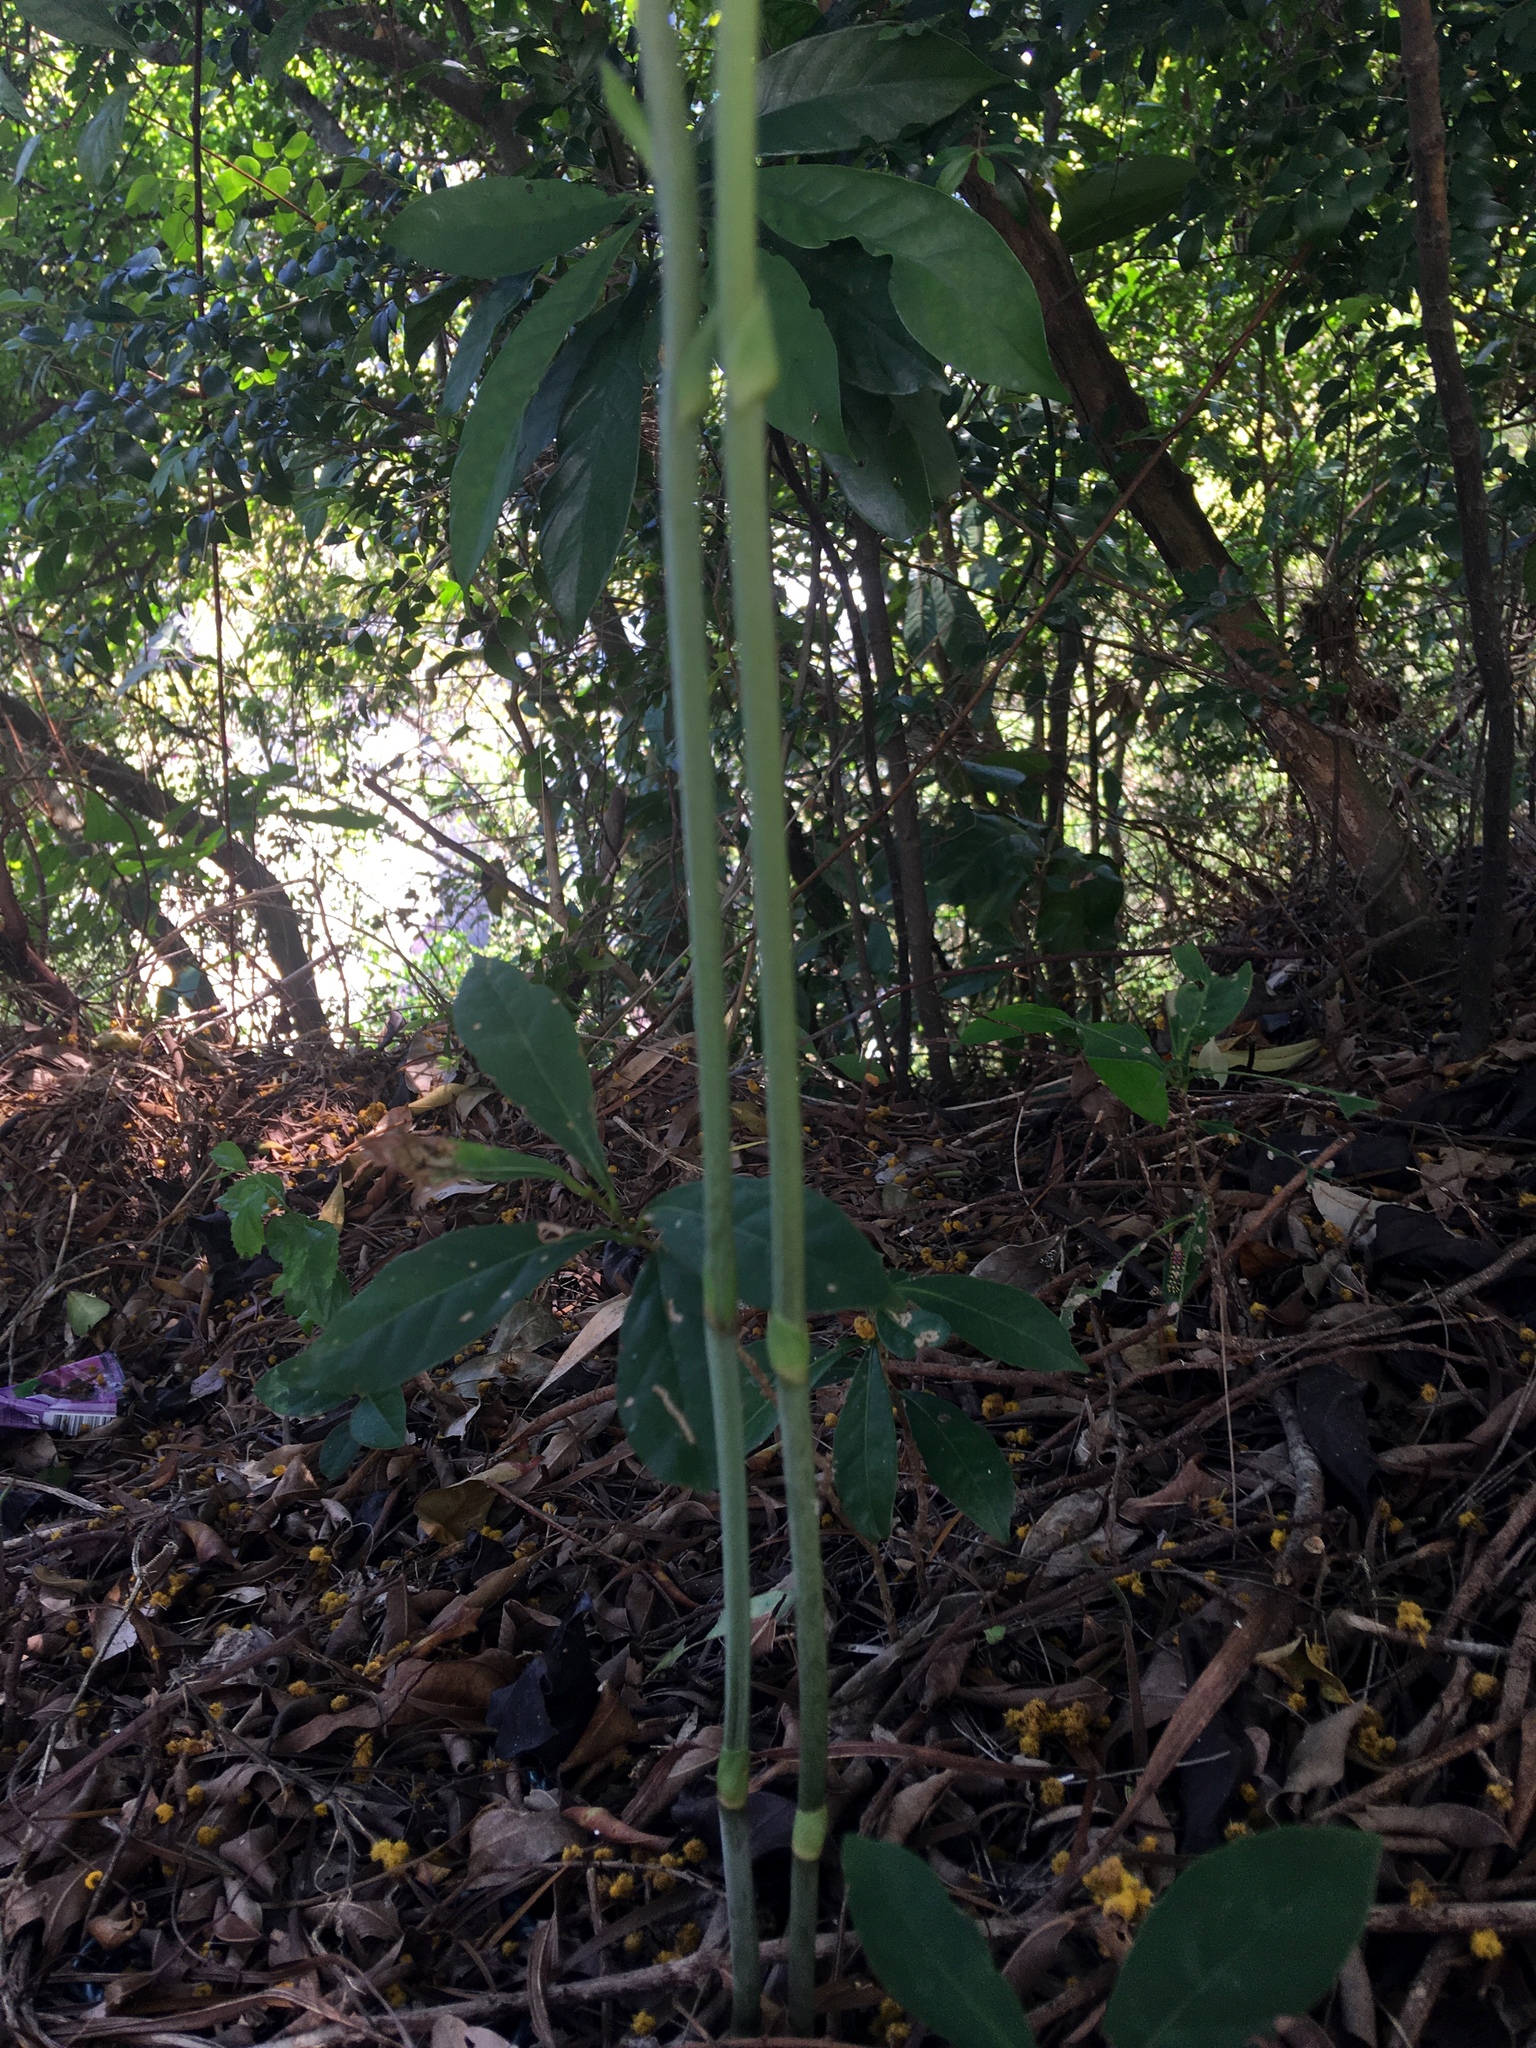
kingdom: Plantae
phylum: Tracheophyta
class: Liliopsida
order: Asparagales
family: Orchidaceae
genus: Eulophia
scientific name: Eulophia graminea
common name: Orchid
